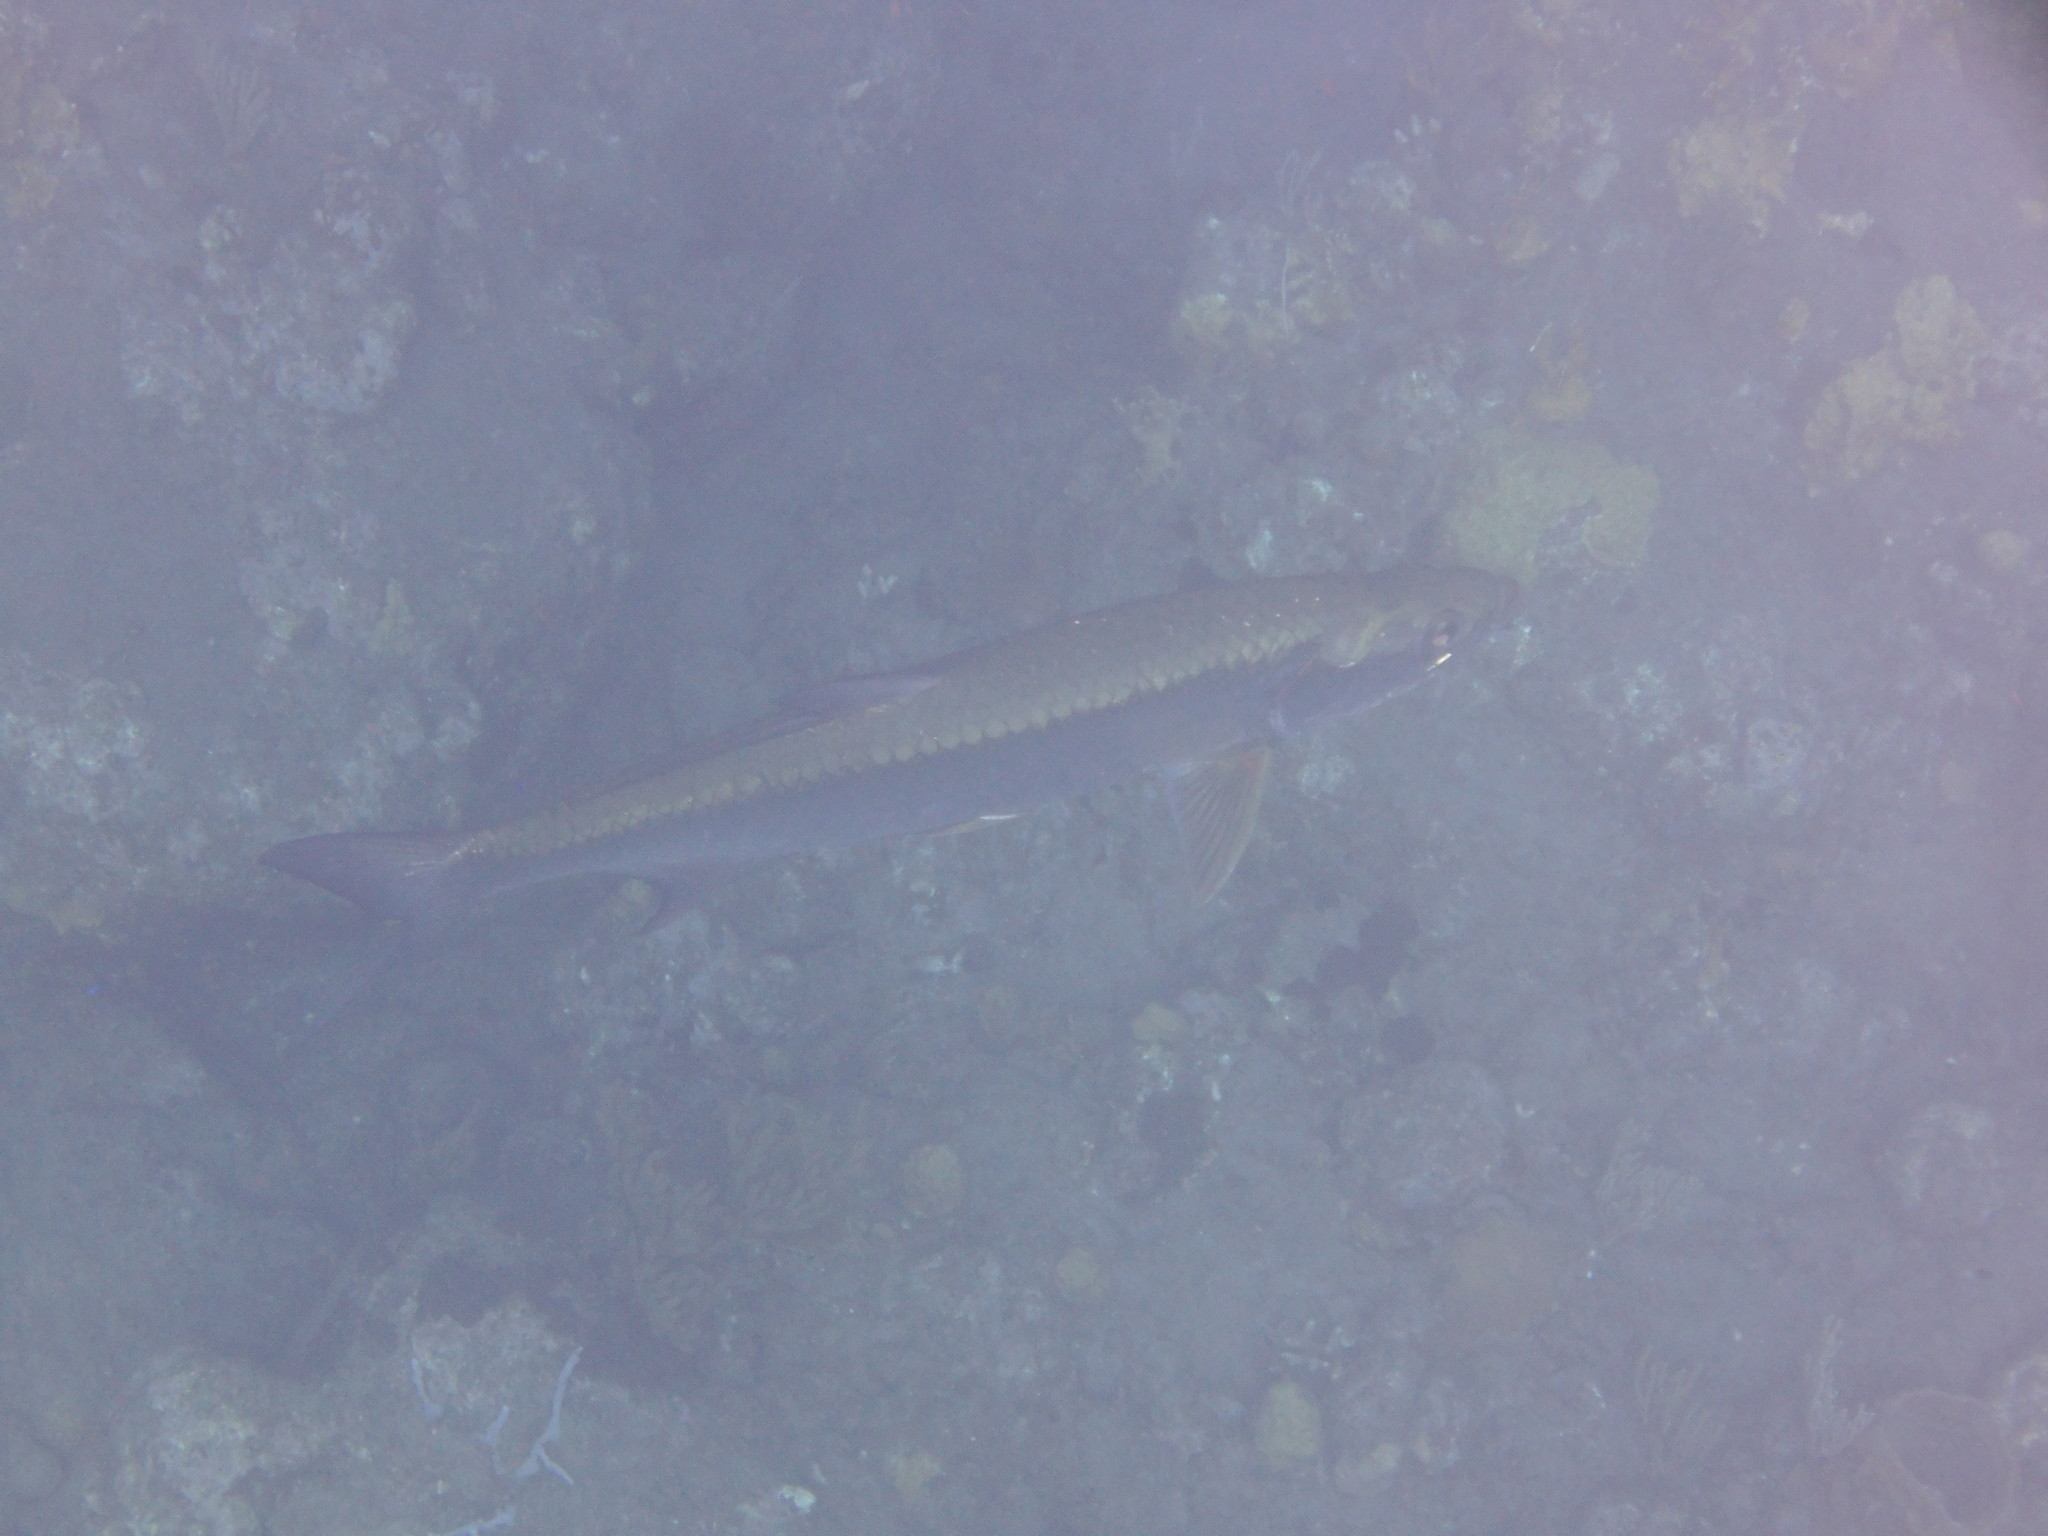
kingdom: Animalia
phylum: Chordata
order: Elopiformes
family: Megalopidae
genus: Megalops
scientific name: Megalops atlanticus
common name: Tarpon
